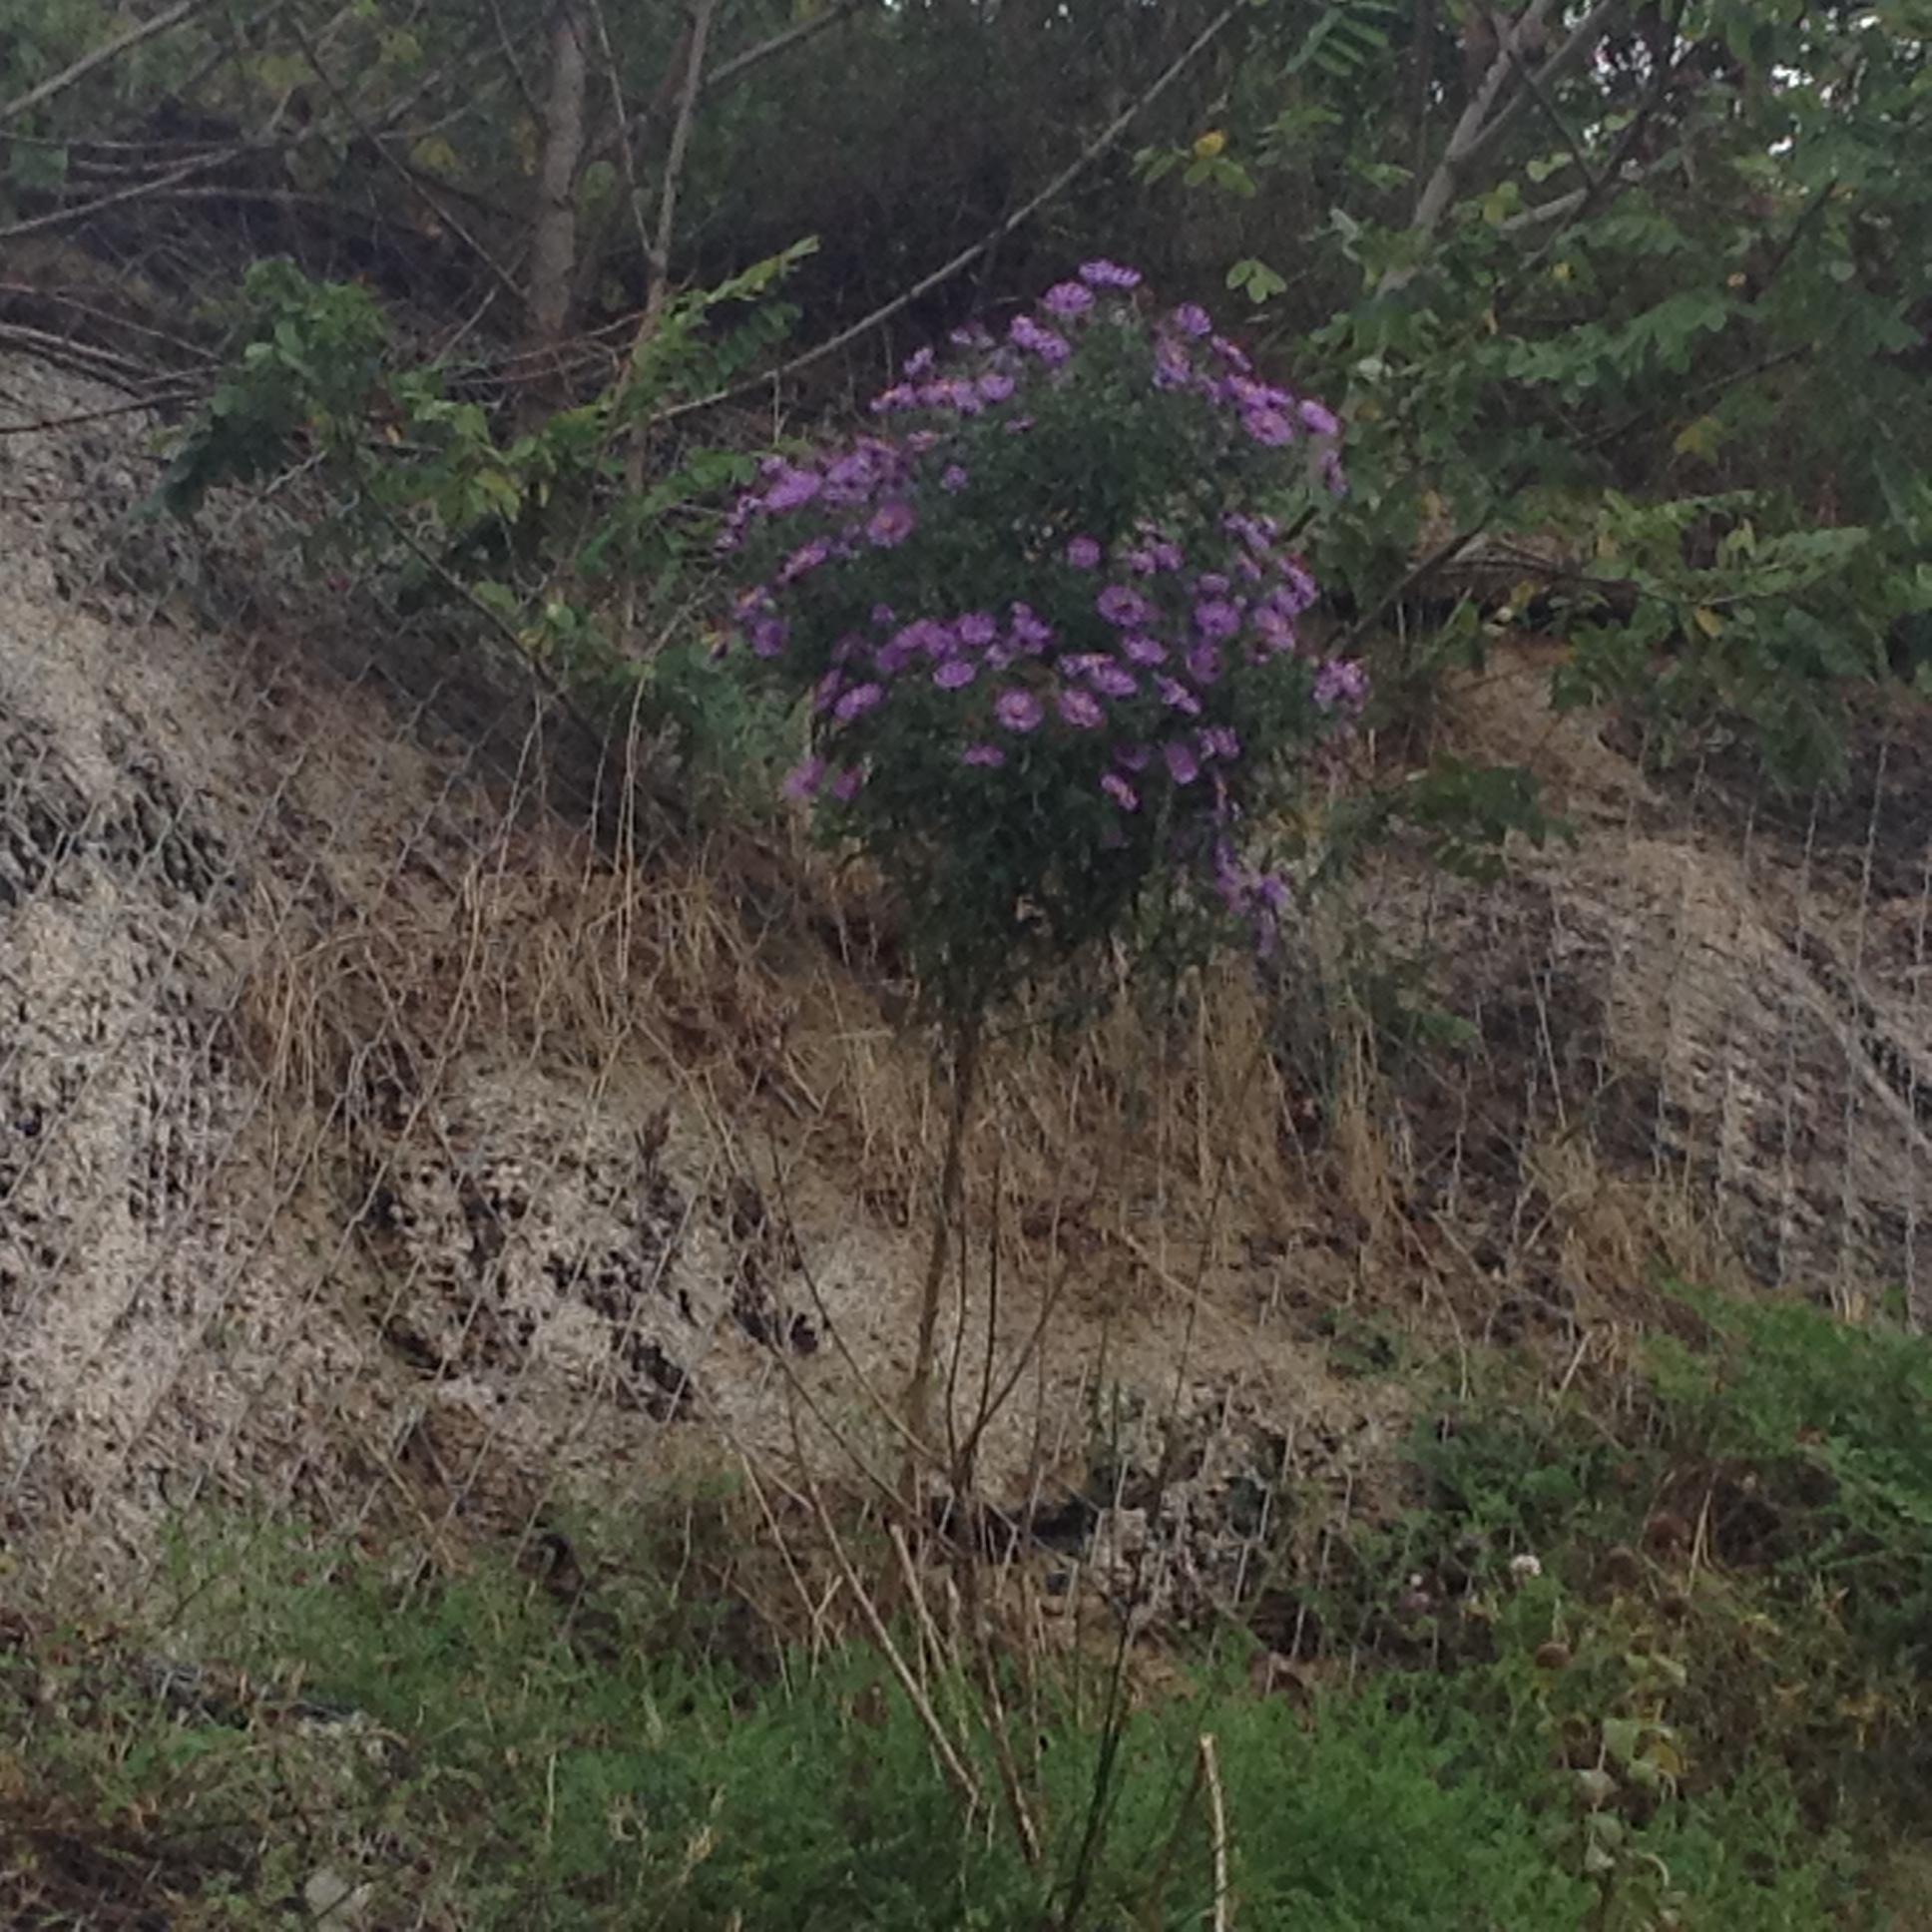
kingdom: Plantae
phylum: Tracheophyta
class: Magnoliopsida
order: Asterales
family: Asteraceae
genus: Symphyotrichum
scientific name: Symphyotrichum novae-angliae
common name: Michaelmas daisy
